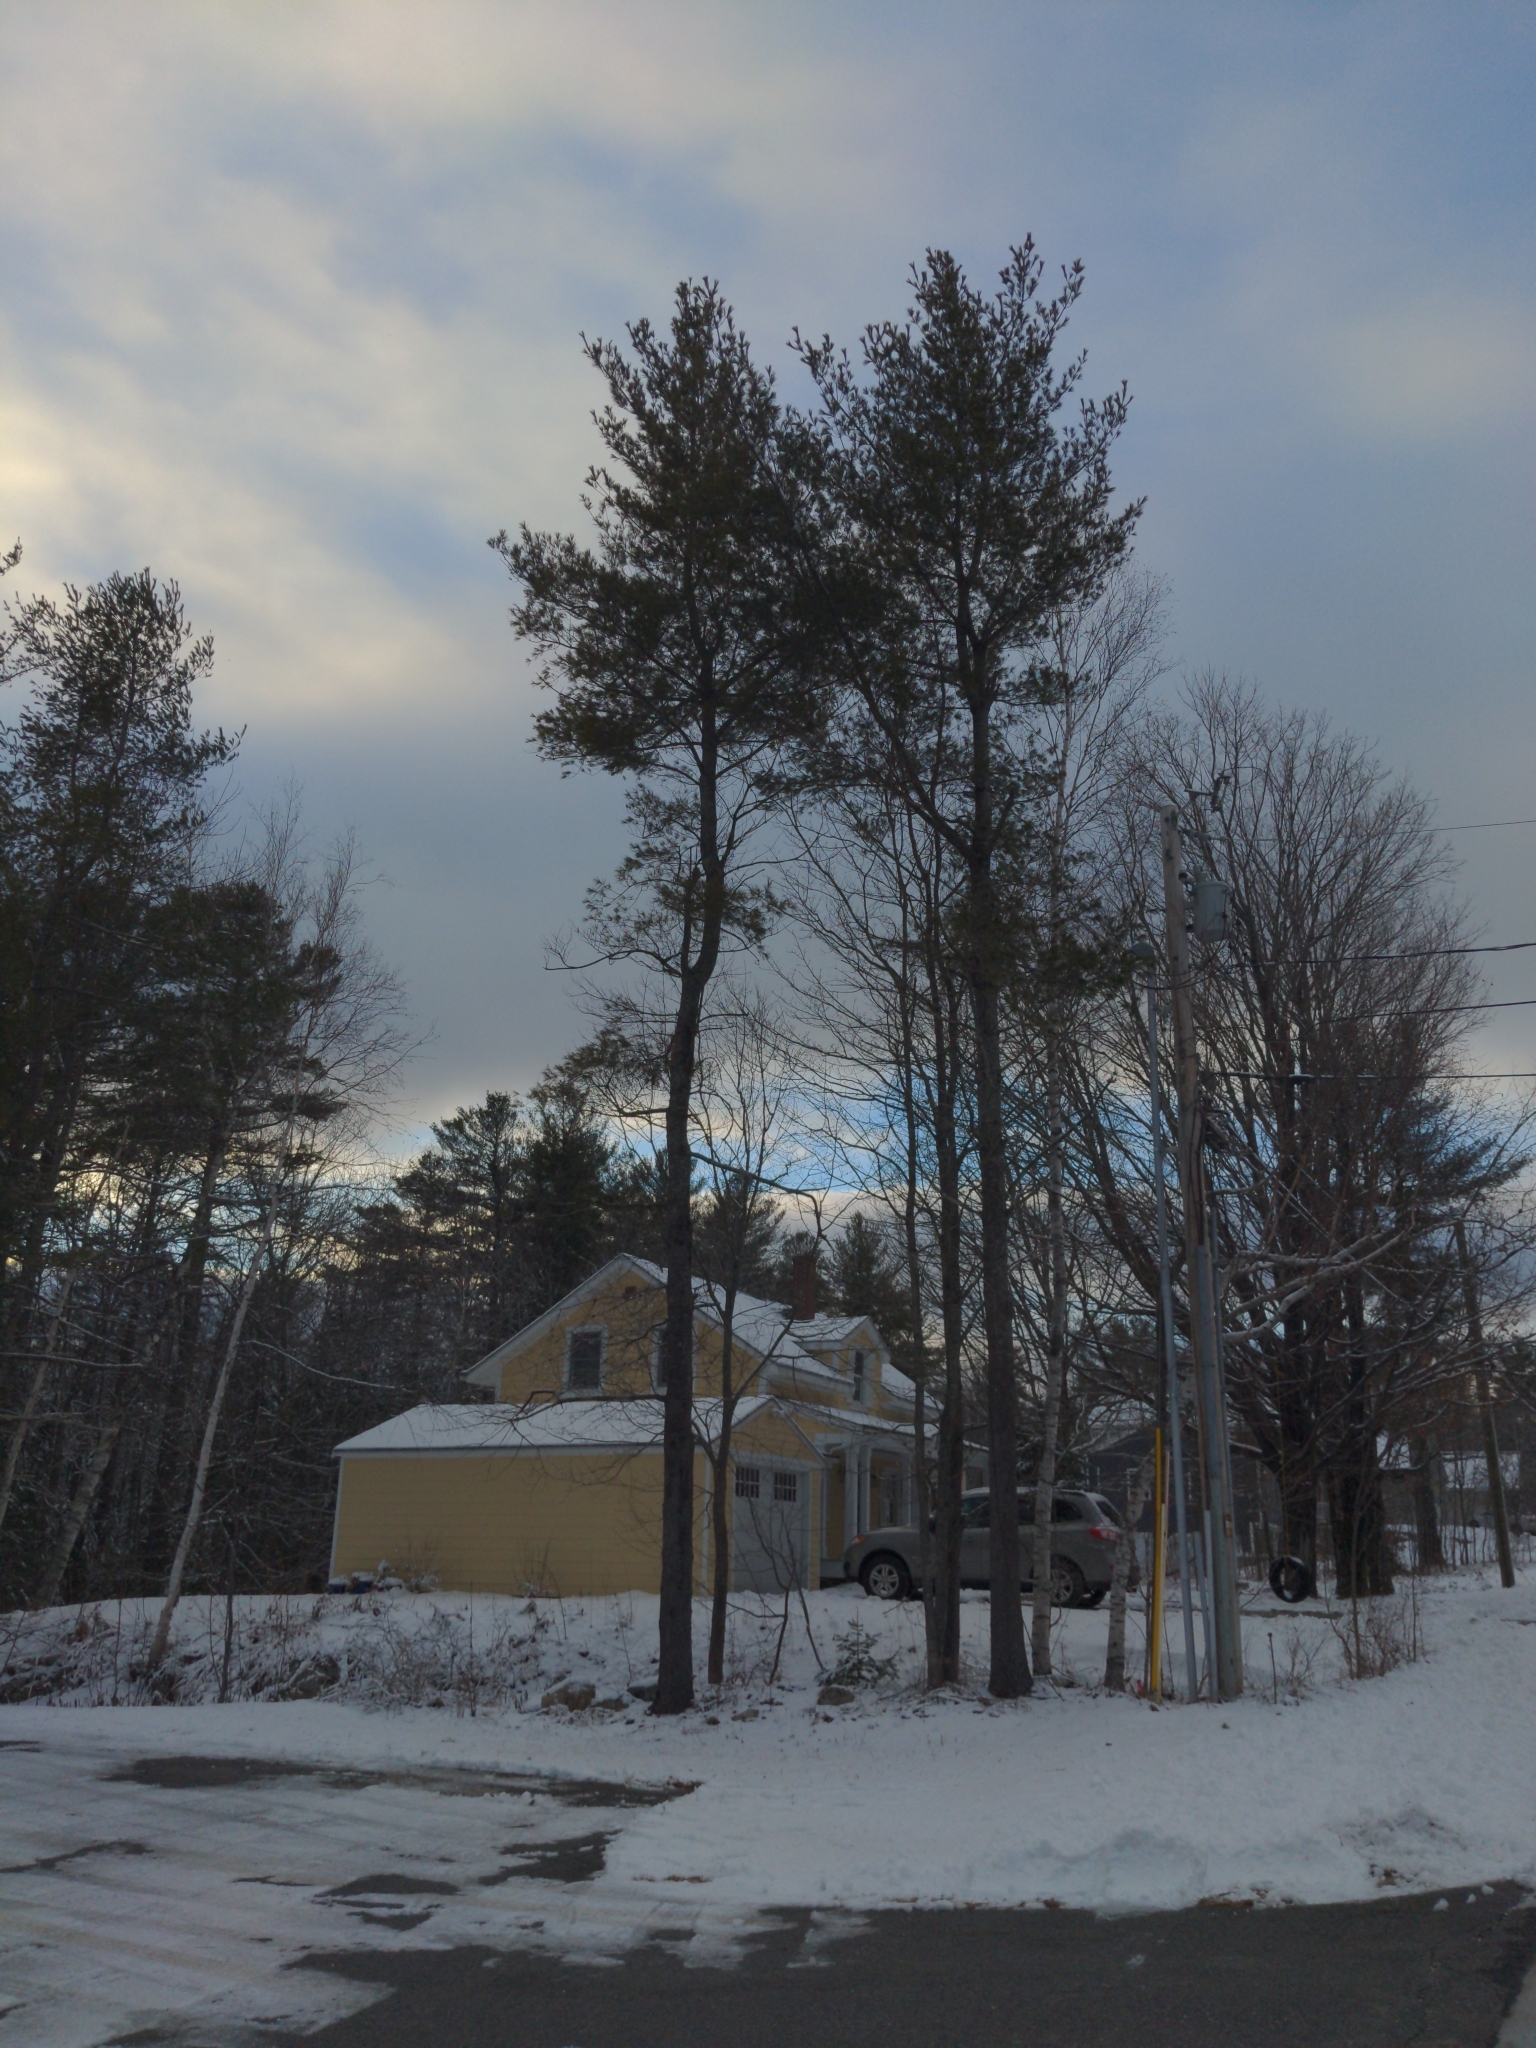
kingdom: Plantae
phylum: Tracheophyta
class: Pinopsida
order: Pinales
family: Pinaceae
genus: Pinus
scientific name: Pinus strobus
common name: Weymouth pine
